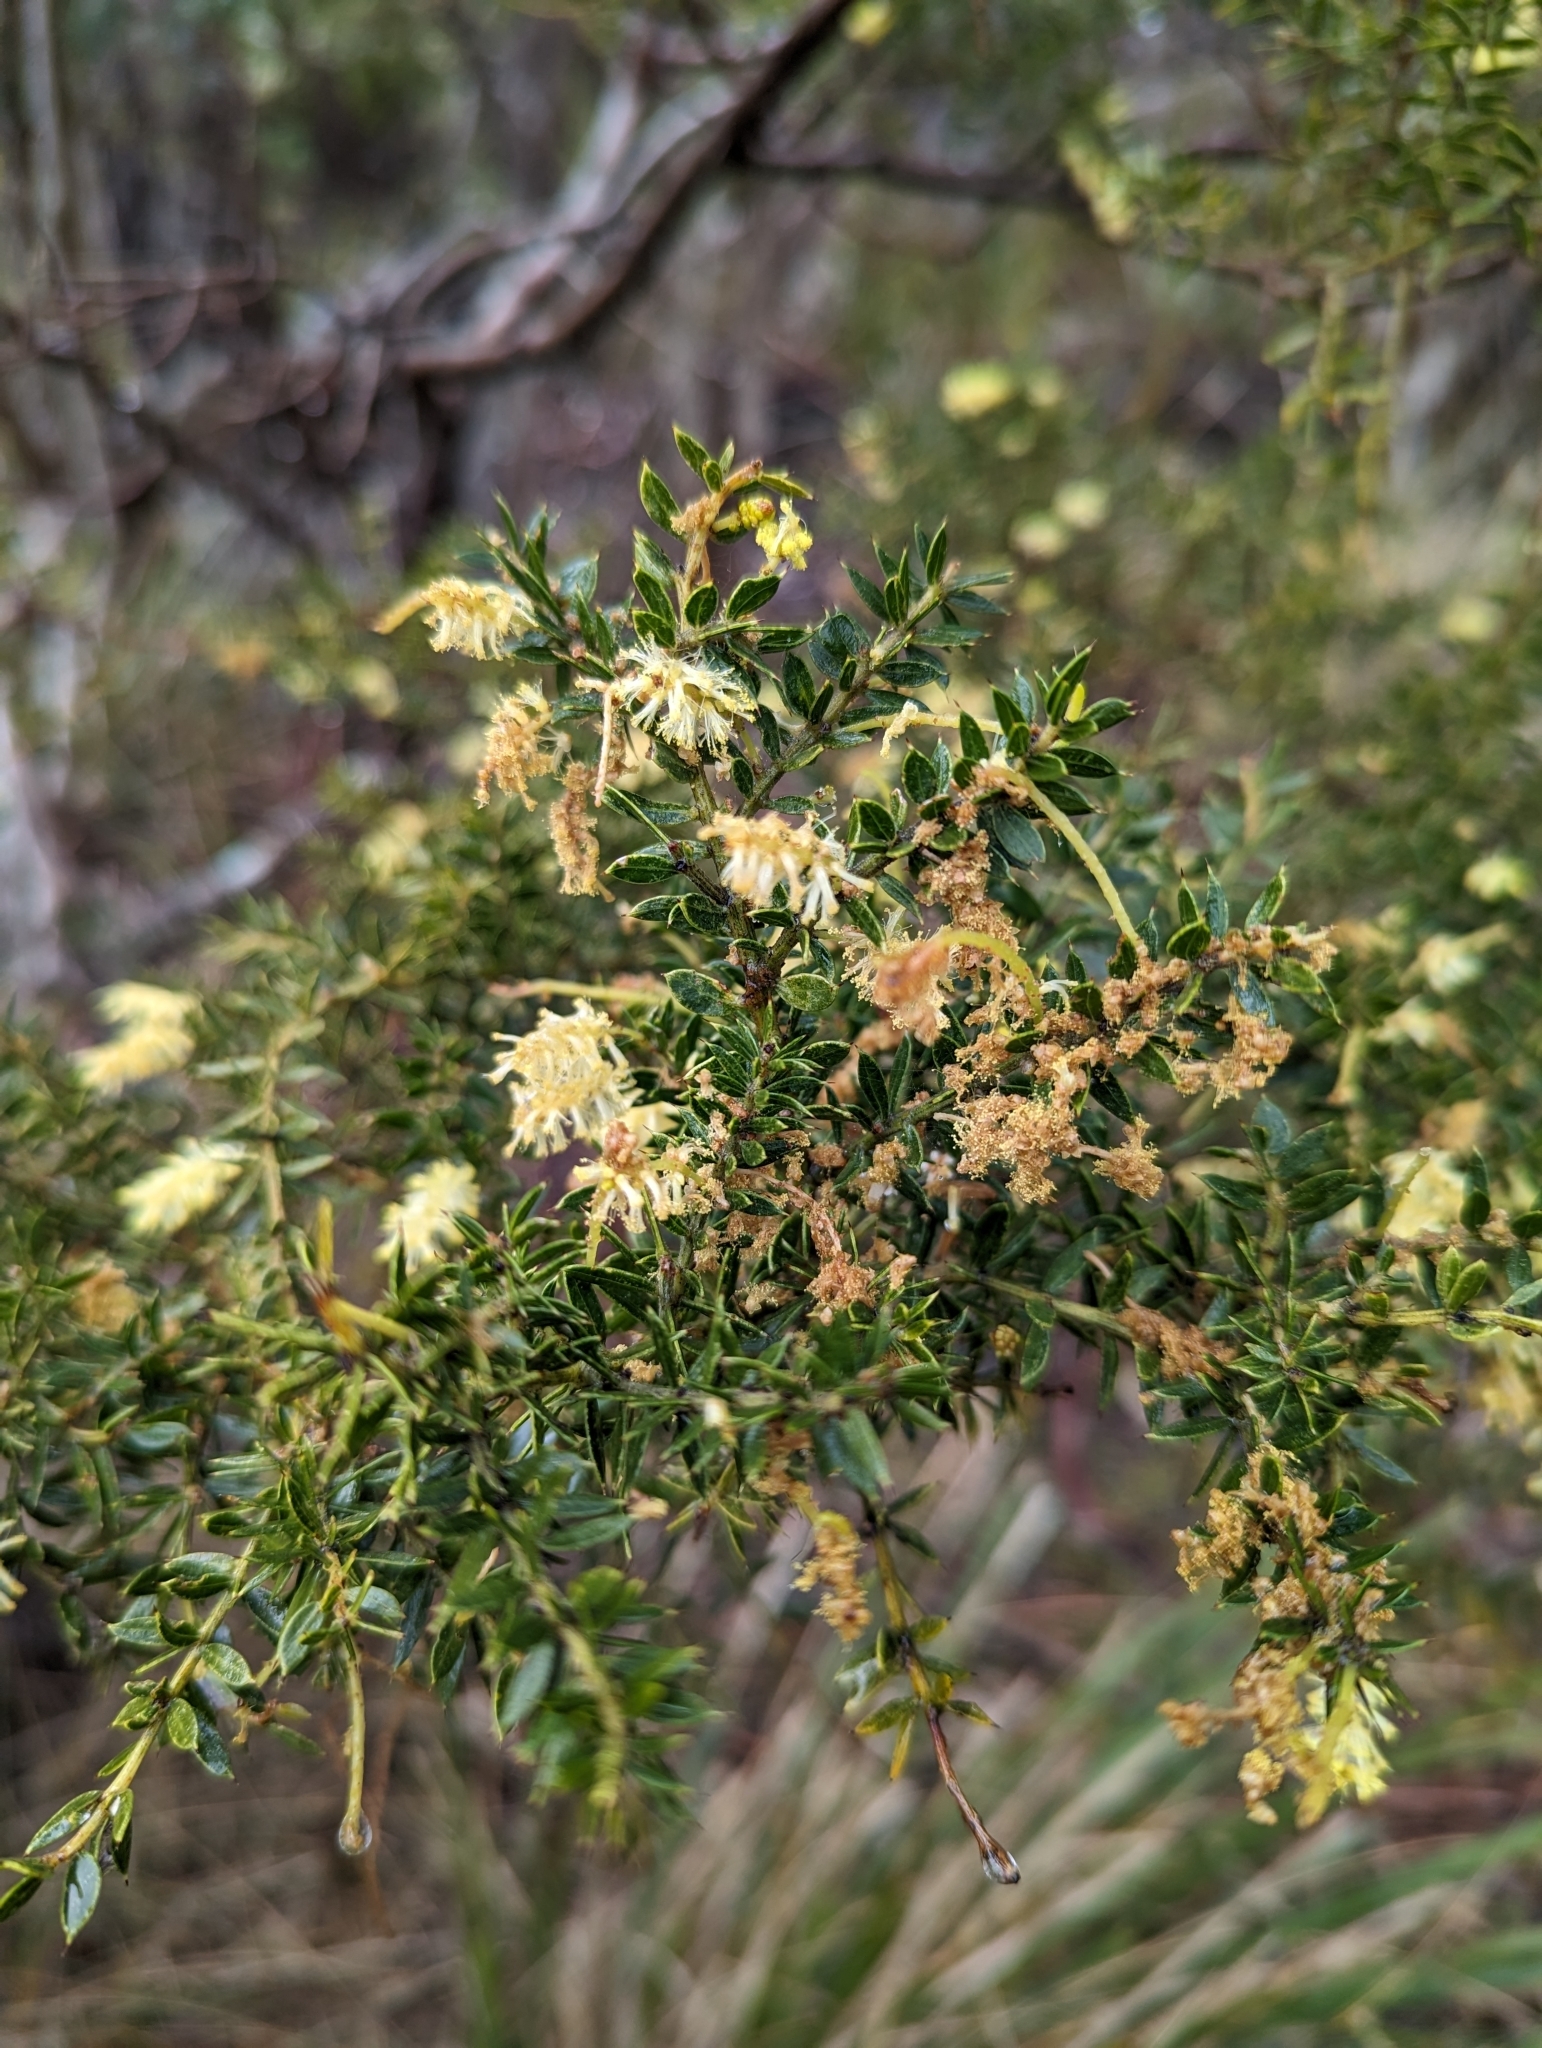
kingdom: Plantae
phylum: Tracheophyta
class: Magnoliopsida
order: Fabales
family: Fabaceae
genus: Acacia
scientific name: Acacia verticillata
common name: Prickly moses
